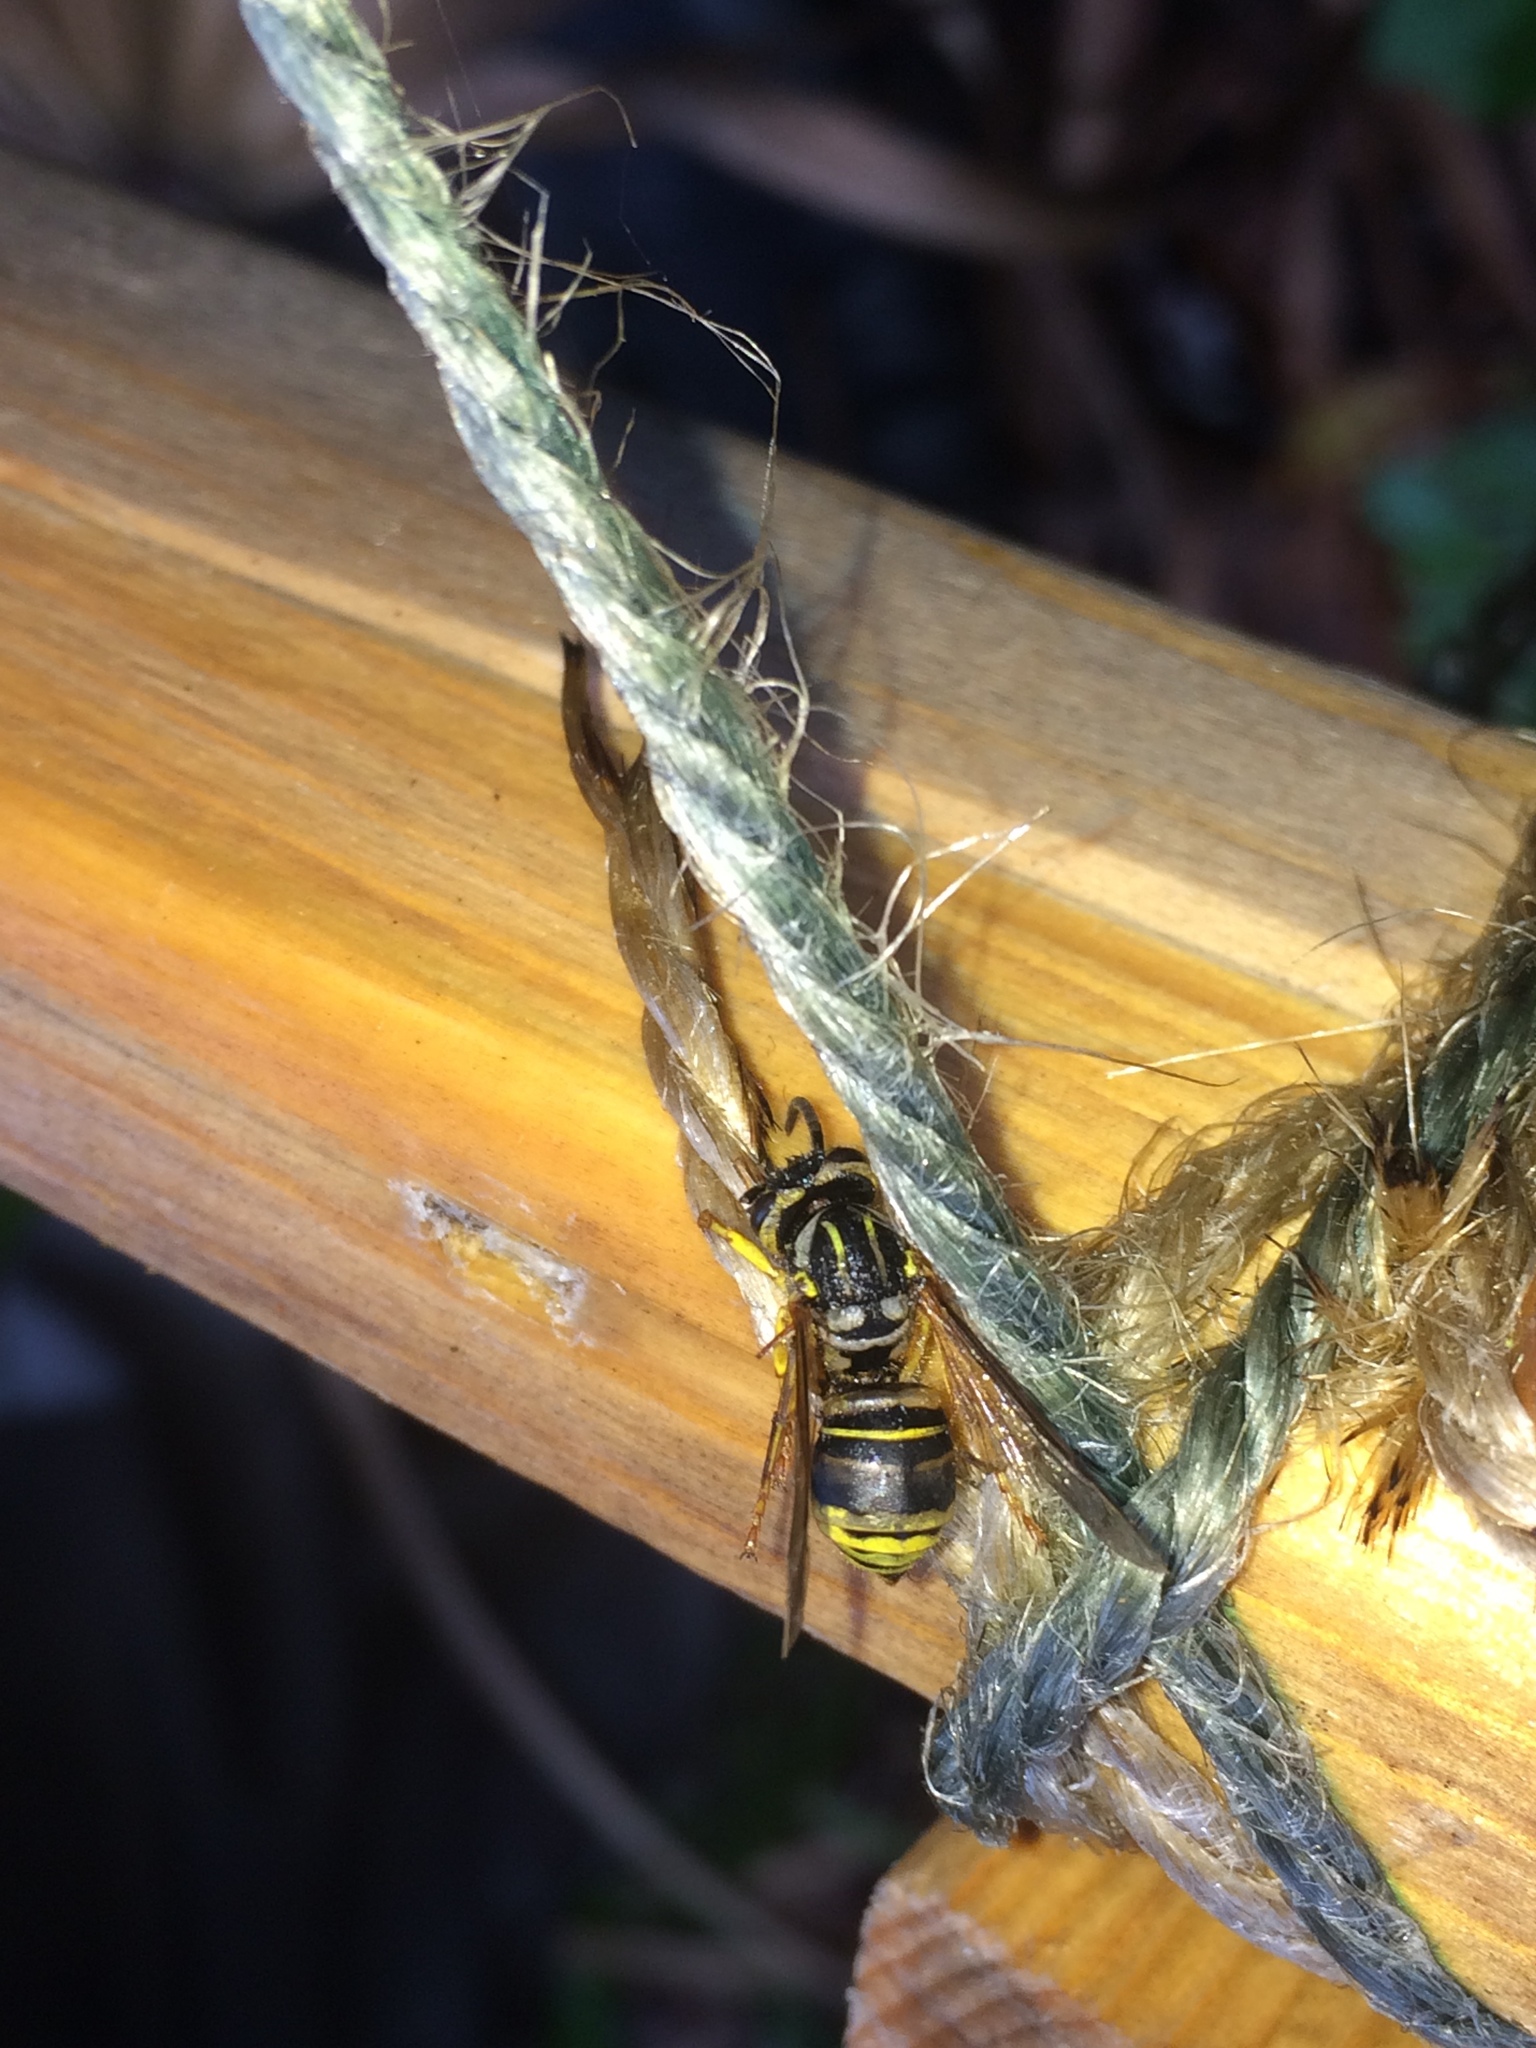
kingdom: Animalia
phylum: Arthropoda
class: Insecta
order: Hymenoptera
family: Vespidae
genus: Vespula
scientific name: Vespula squamosa
